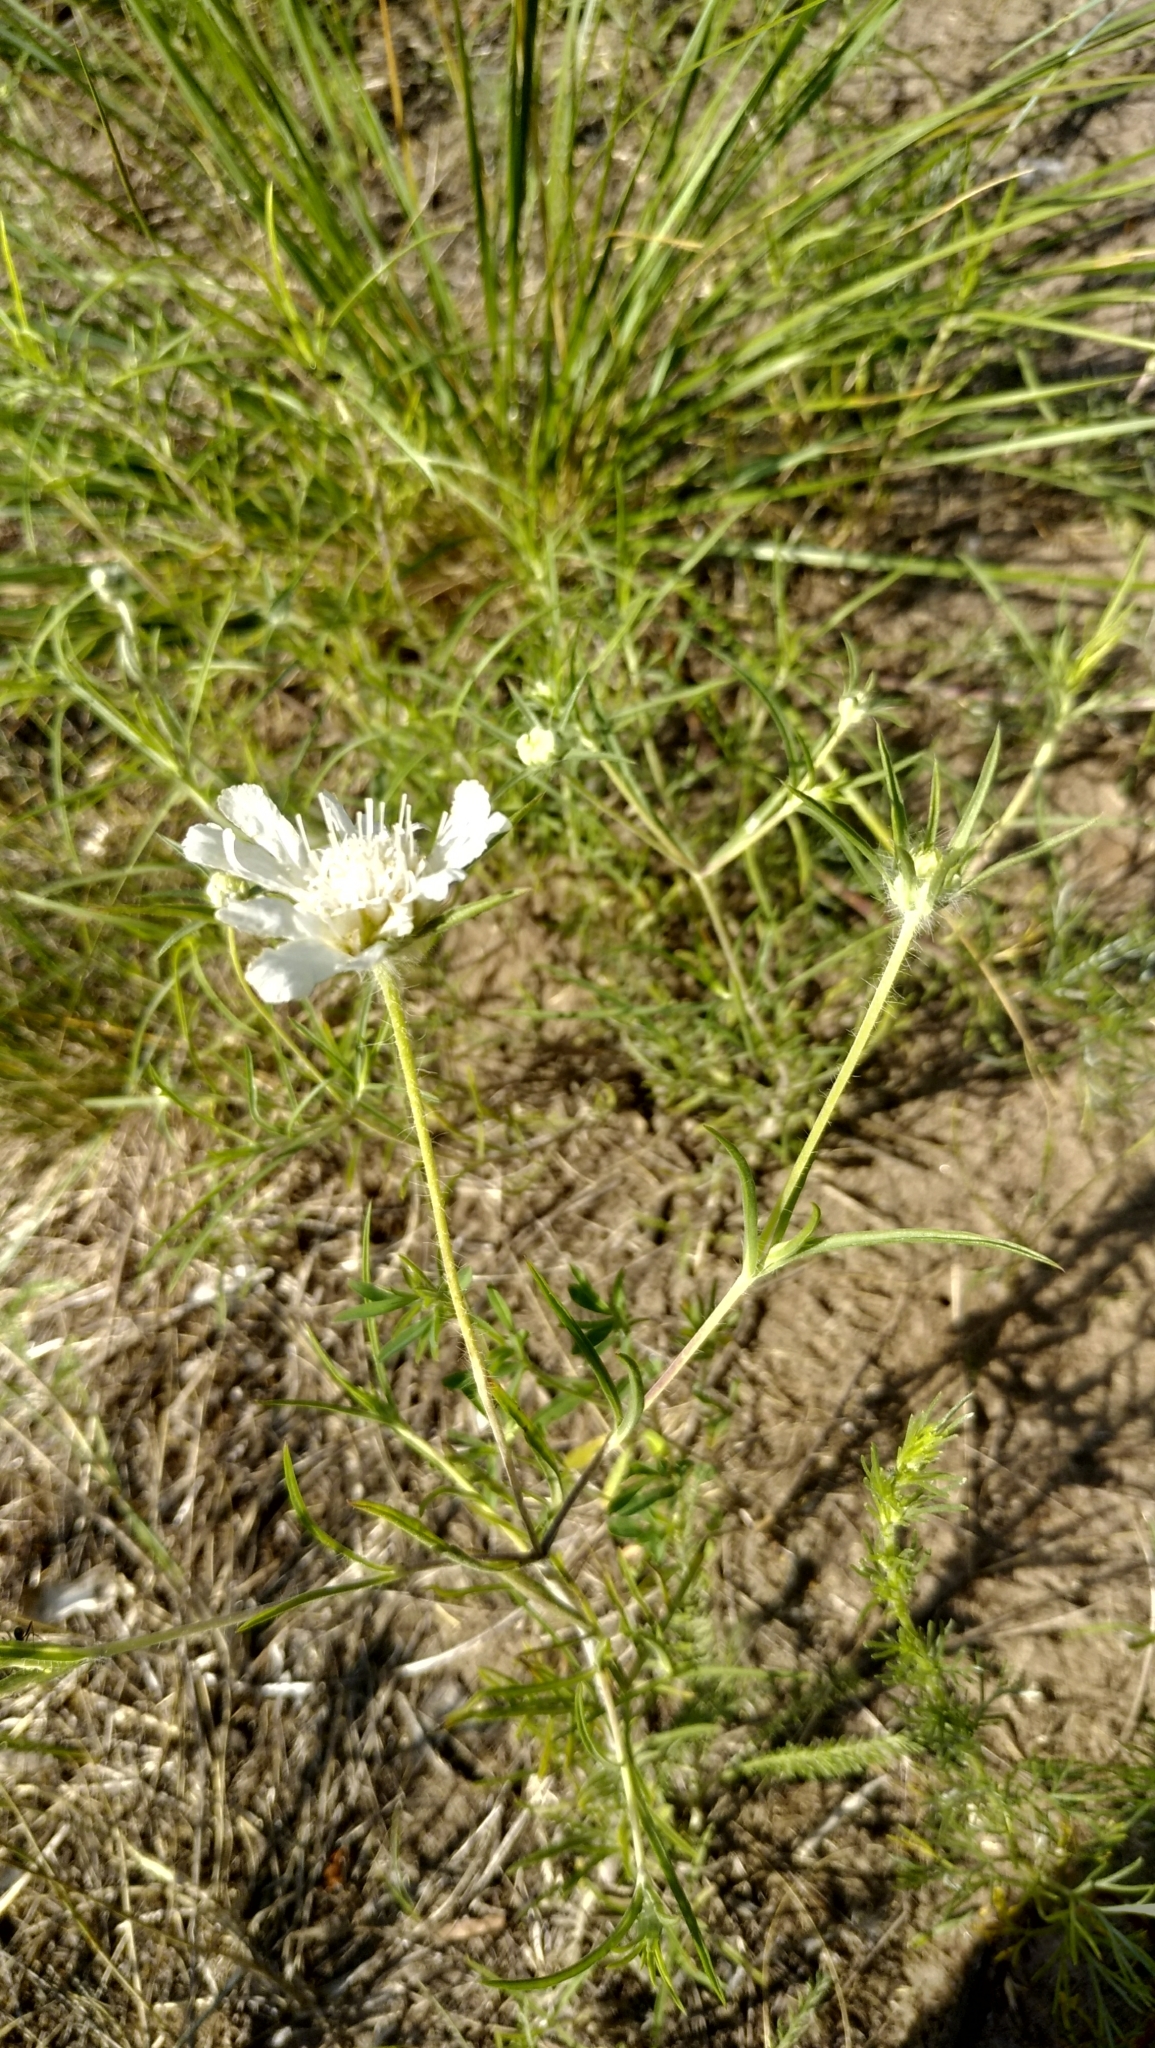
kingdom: Plantae
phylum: Tracheophyta
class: Magnoliopsida
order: Dipsacales
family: Caprifoliaceae
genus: Lomelosia
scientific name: Lomelosia argentea
